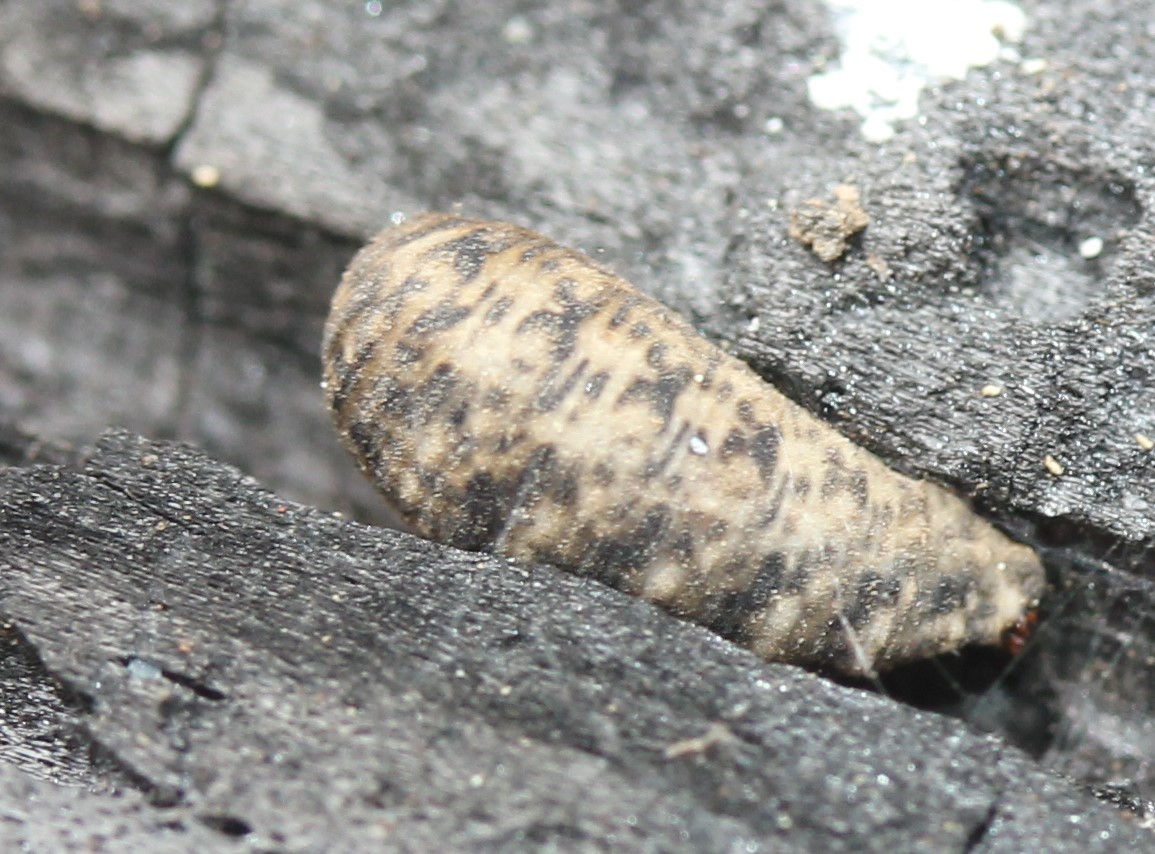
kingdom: Animalia
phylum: Arthropoda
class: Insecta
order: Diptera
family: Syrphidae
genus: Lapposyrphus
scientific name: Lapposyrphus lapponicus
